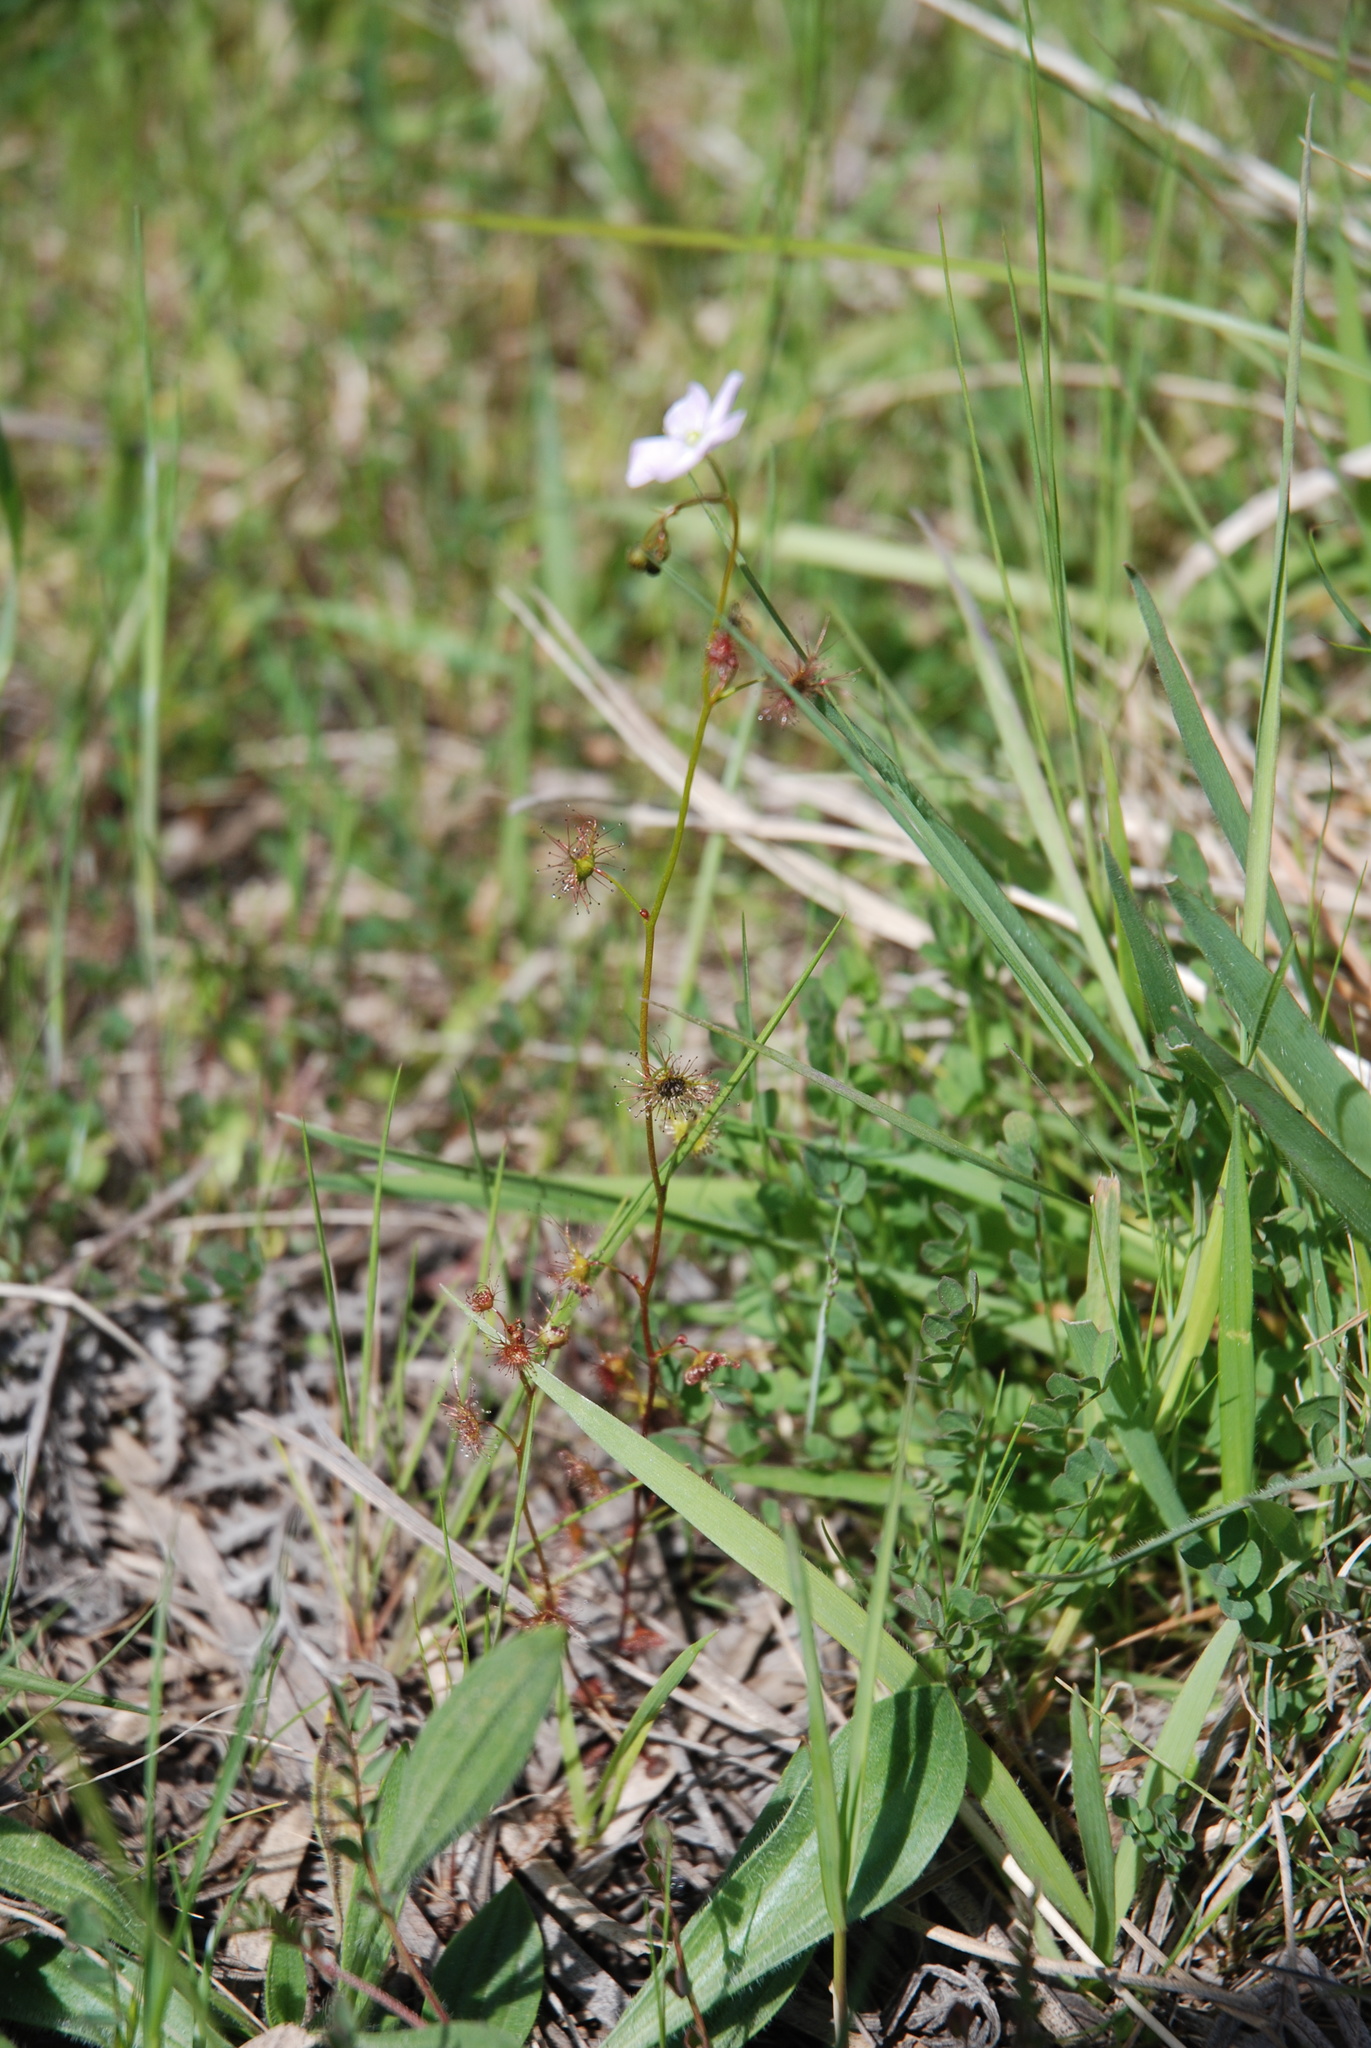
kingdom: Plantae
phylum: Tracheophyta
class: Magnoliopsida
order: Caryophyllales
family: Droseraceae
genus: Drosera
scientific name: Drosera peltata
